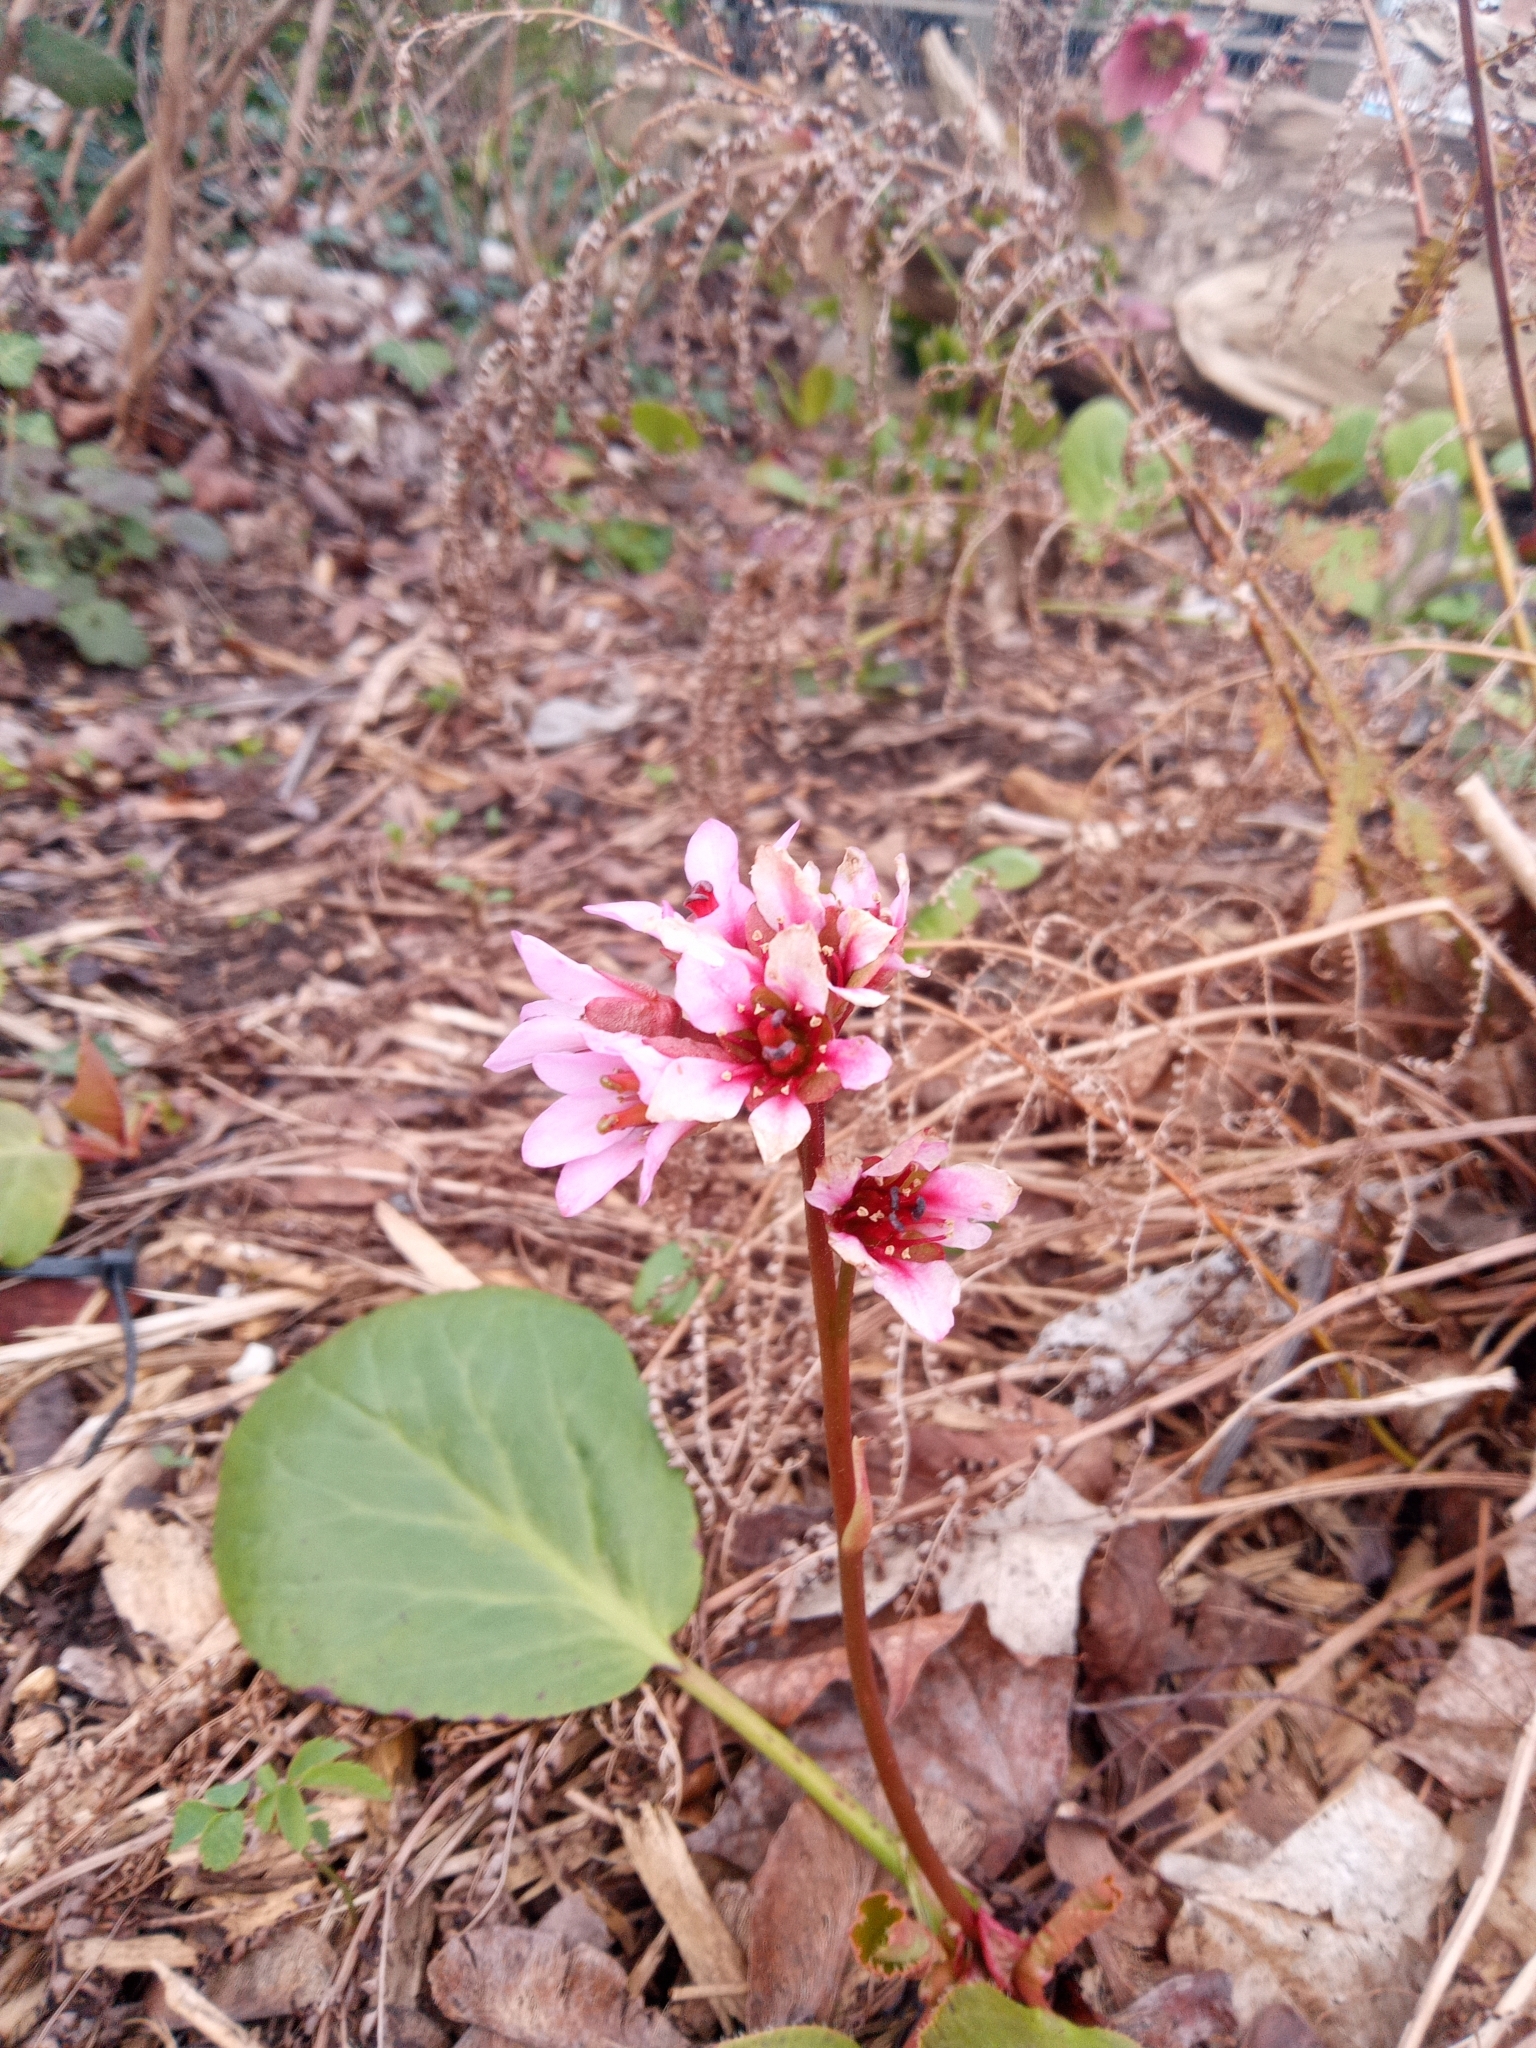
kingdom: Plantae
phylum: Tracheophyta
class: Magnoliopsida
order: Saxifragales
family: Saxifragaceae
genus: Bergenia
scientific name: Bergenia crassifolia
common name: Elephant-ears
